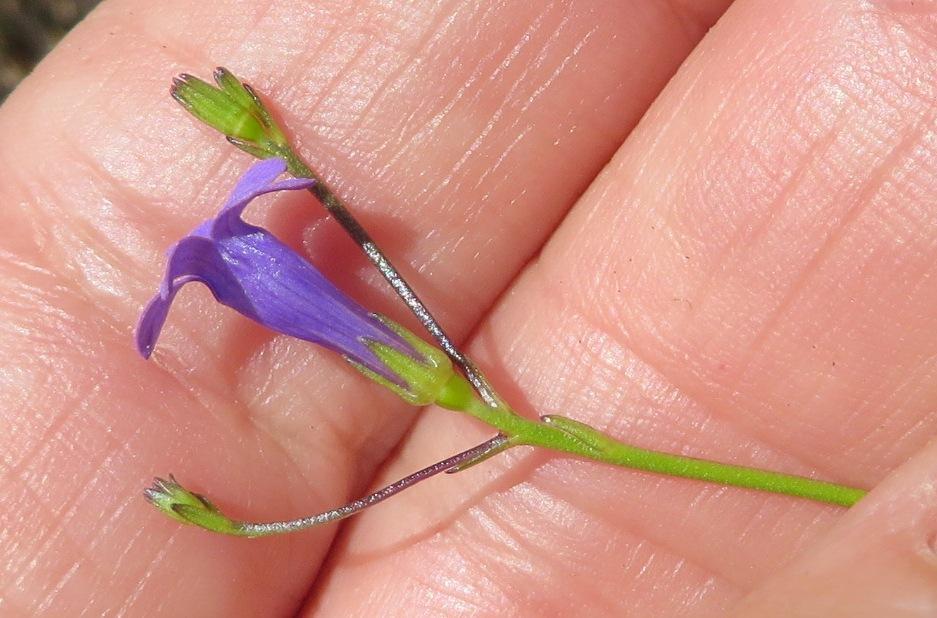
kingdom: Plantae
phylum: Tracheophyta
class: Magnoliopsida
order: Asterales
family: Campanulaceae
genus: Siphocodon
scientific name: Siphocodon spartioides
